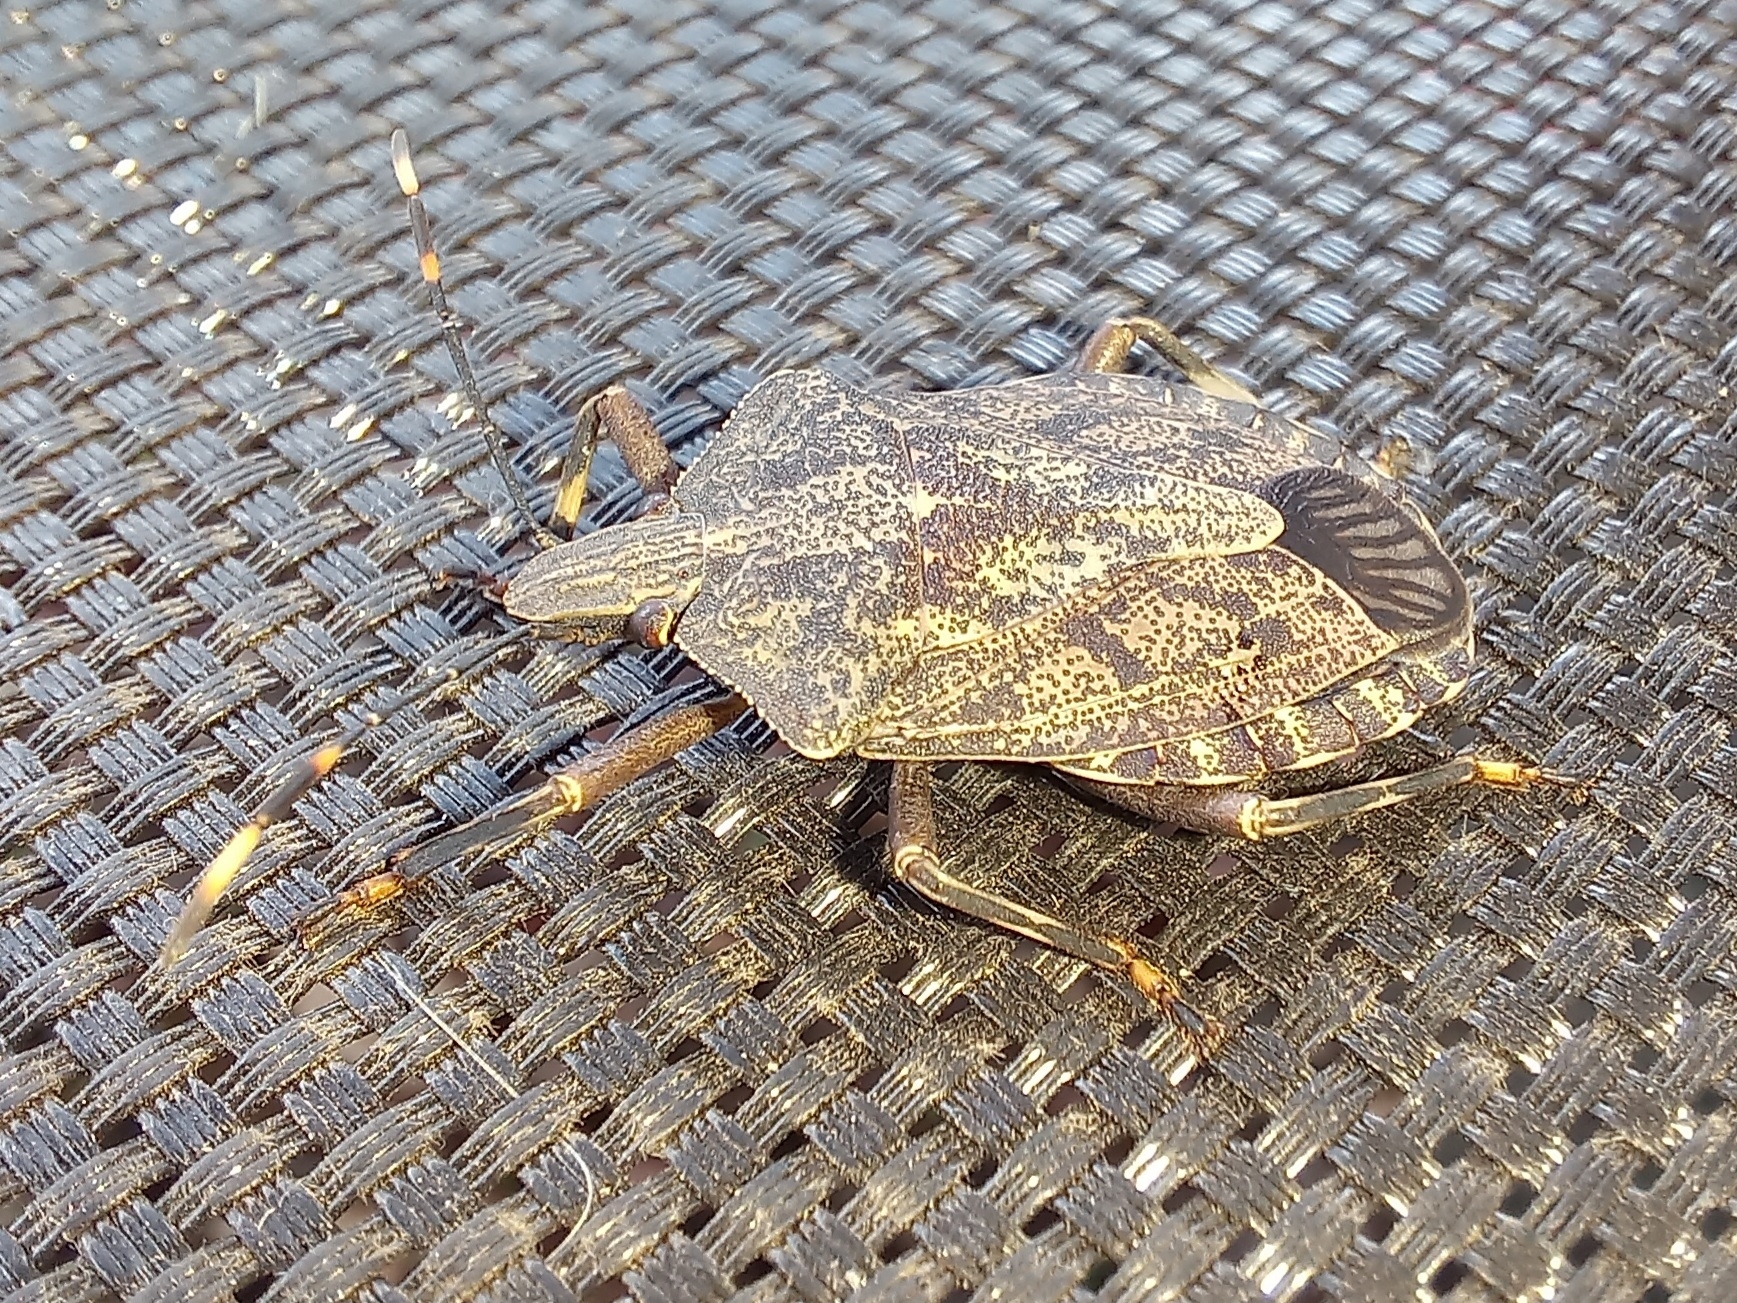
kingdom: Animalia
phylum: Arthropoda
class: Insecta
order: Hemiptera
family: Pentatomidae
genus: Coenomorpha
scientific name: Coenomorpha nervosa
